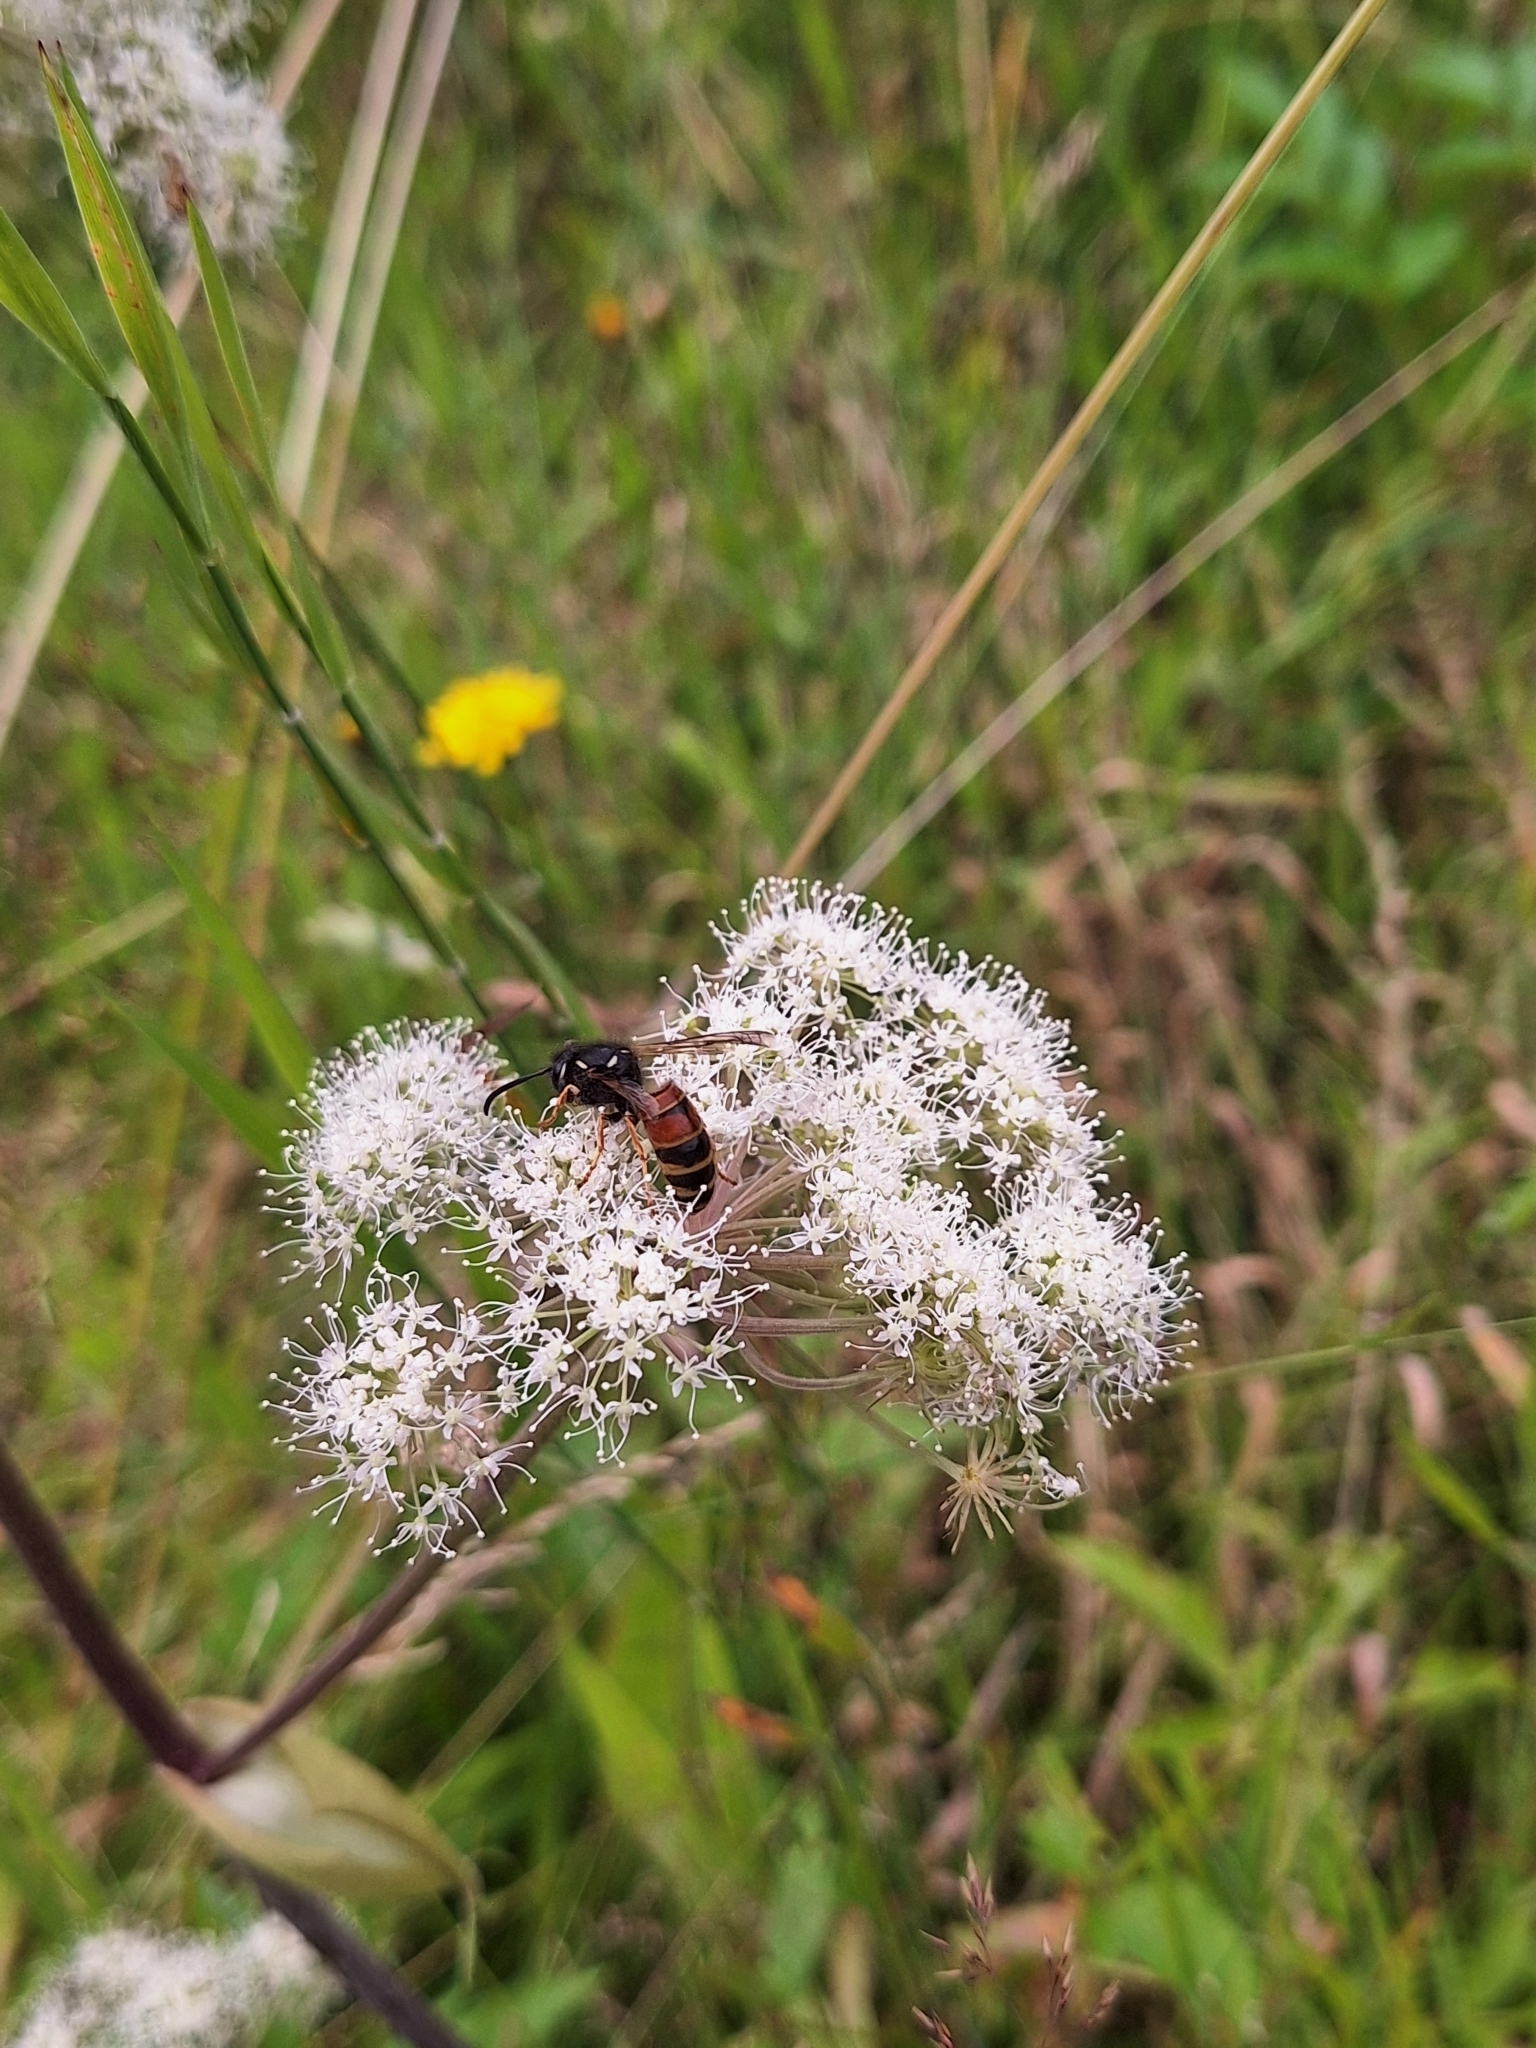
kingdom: Animalia
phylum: Arthropoda
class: Insecta
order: Hymenoptera
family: Vespidae
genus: Vespula
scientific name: Vespula rufa
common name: Red wasp
